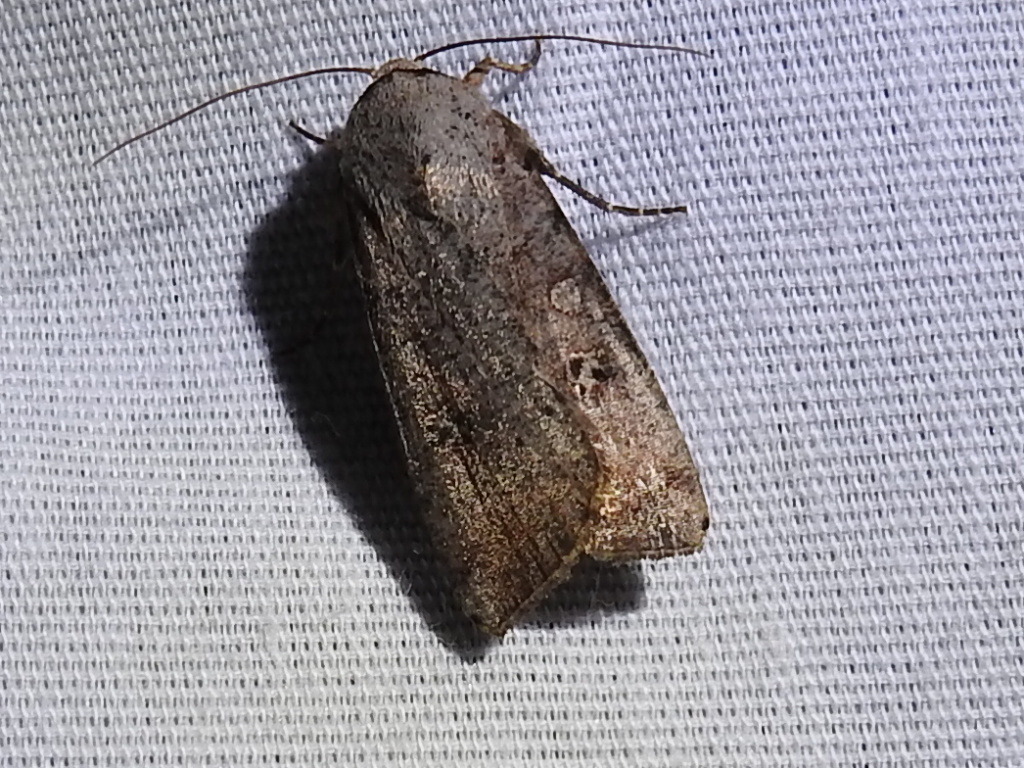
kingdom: Animalia
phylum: Arthropoda
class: Insecta
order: Lepidoptera
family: Noctuidae
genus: Anicla
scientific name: Anicla infecta
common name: Green cutworm
